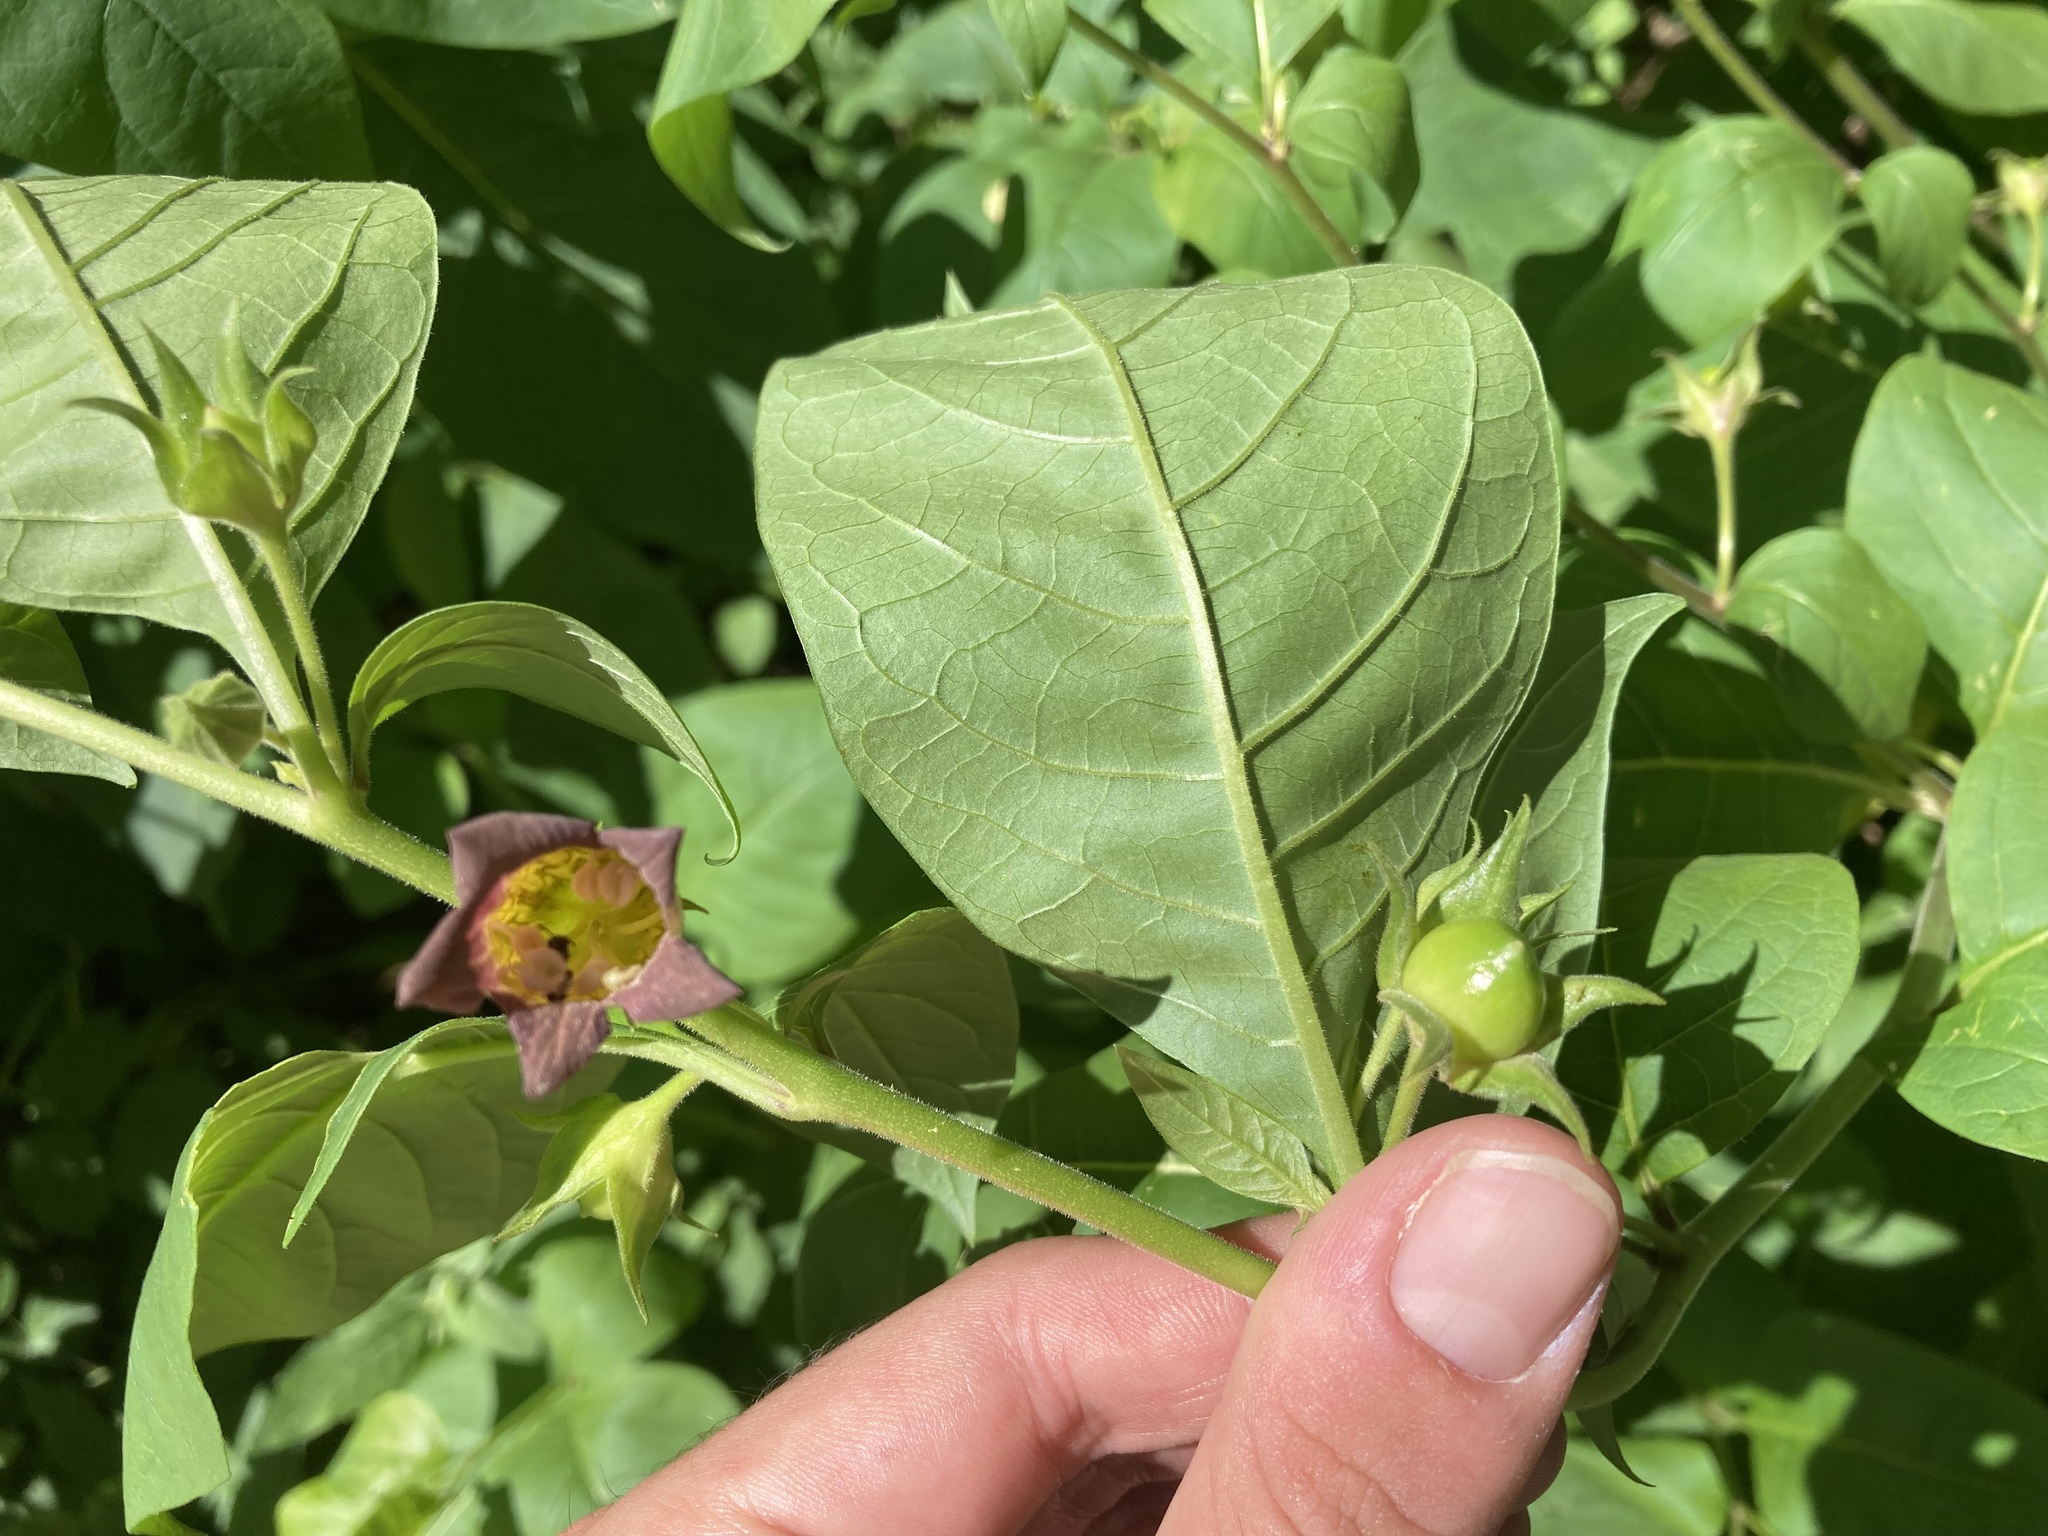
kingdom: Plantae
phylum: Tracheophyta
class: Magnoliopsida
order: Solanales
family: Solanaceae
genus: Atropa
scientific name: Atropa belladonna
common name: Deadly nightshade
